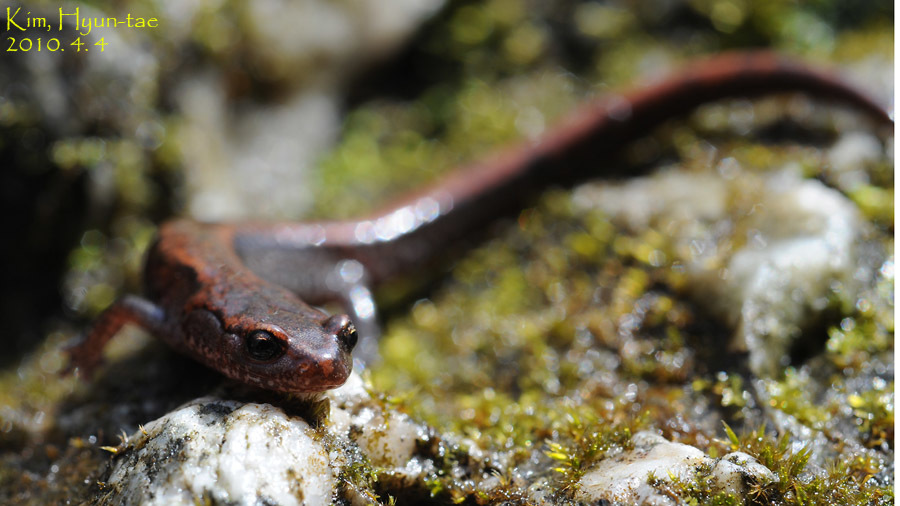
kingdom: Animalia
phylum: Chordata
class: Amphibia
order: Caudata
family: Plethodontidae
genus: Karsenia
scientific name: Karsenia koreana
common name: Korean crevice salamander
